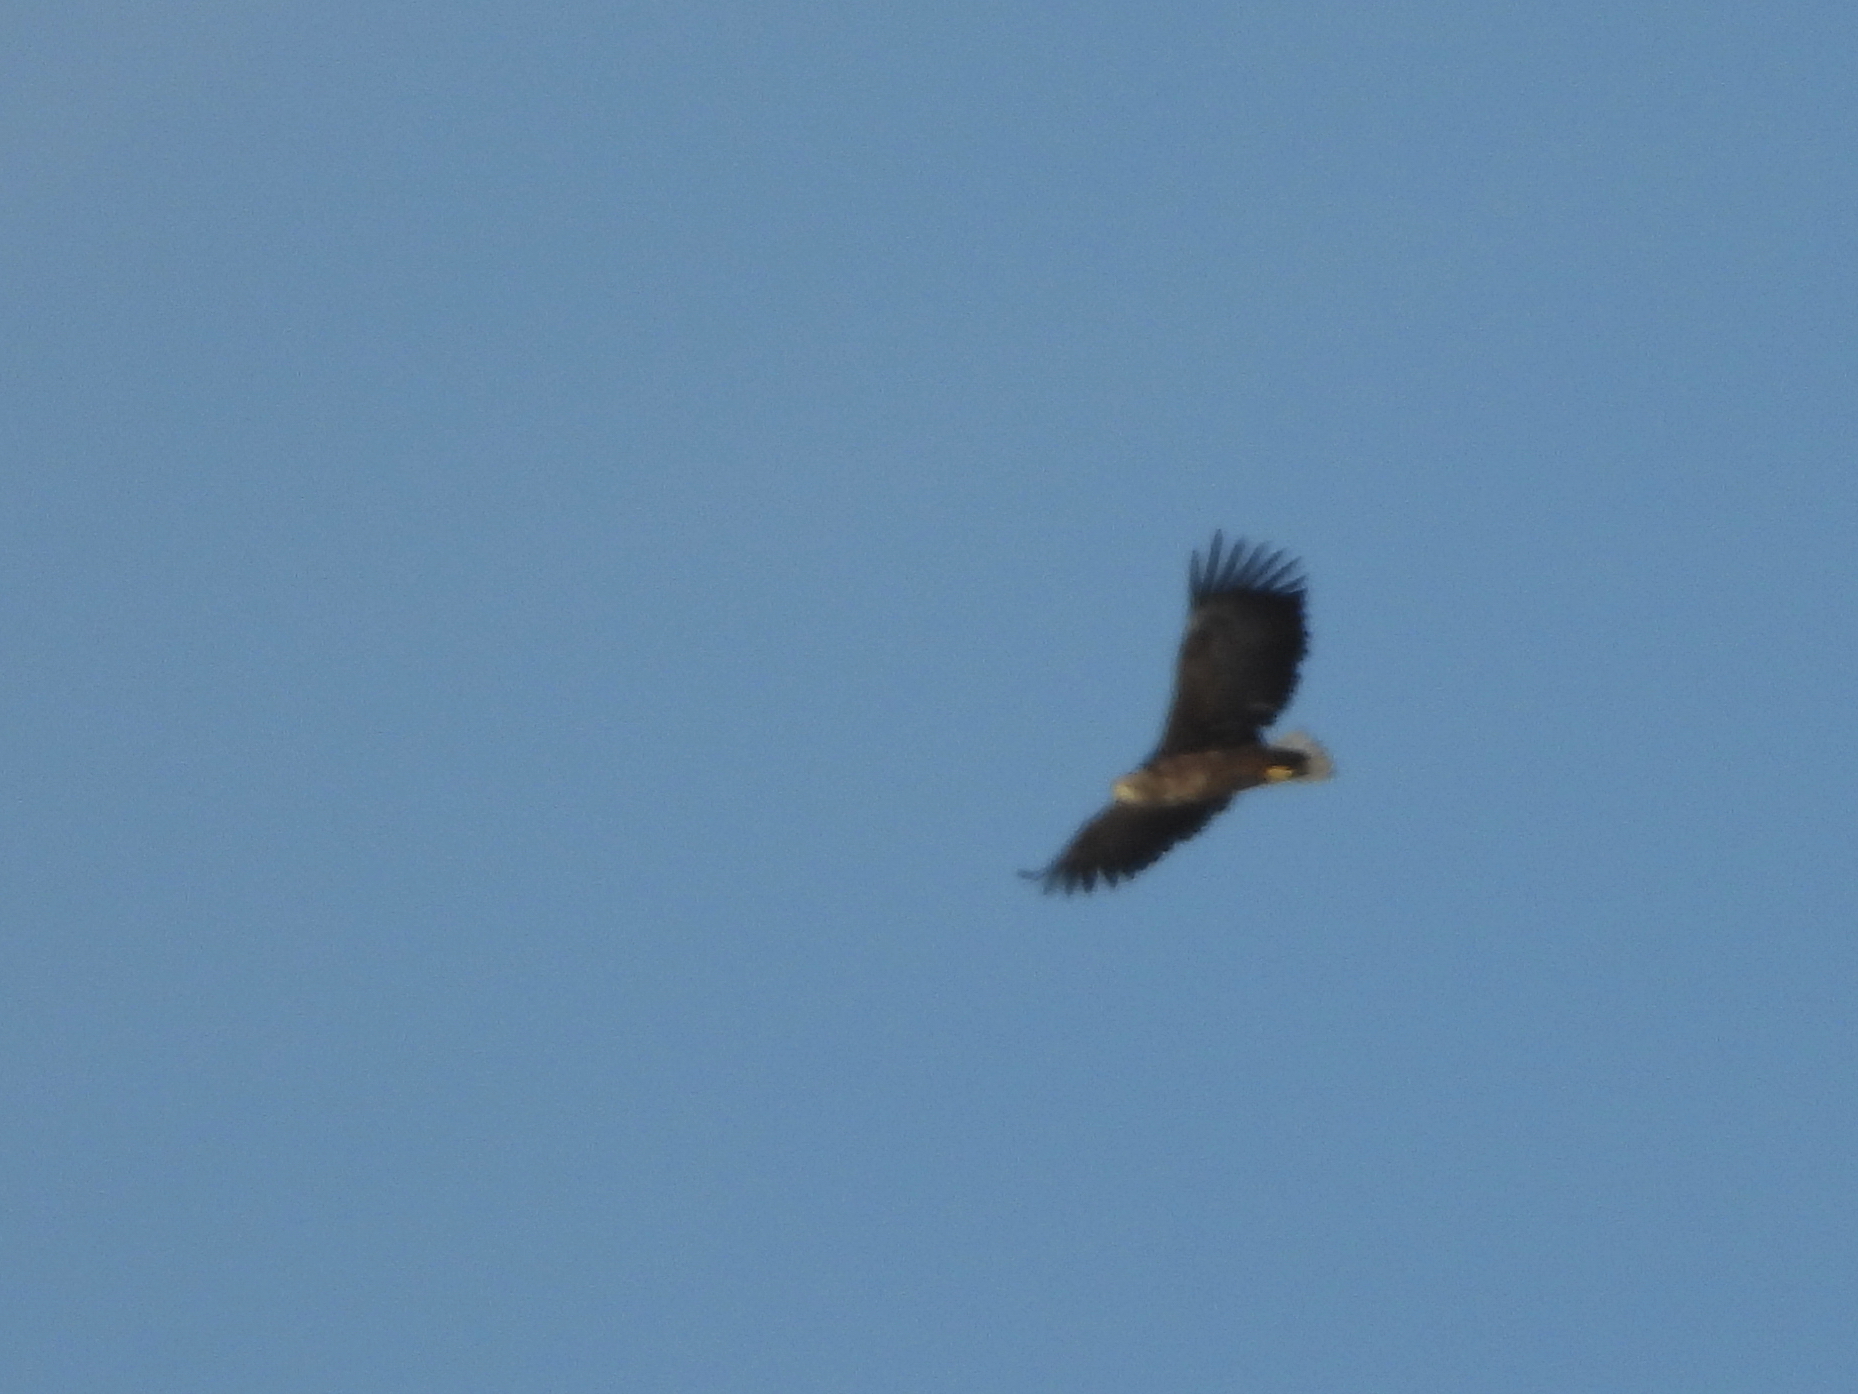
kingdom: Animalia
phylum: Chordata
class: Aves
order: Accipitriformes
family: Accipitridae
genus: Haliaeetus
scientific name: Haliaeetus albicilla
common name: White-tailed eagle
